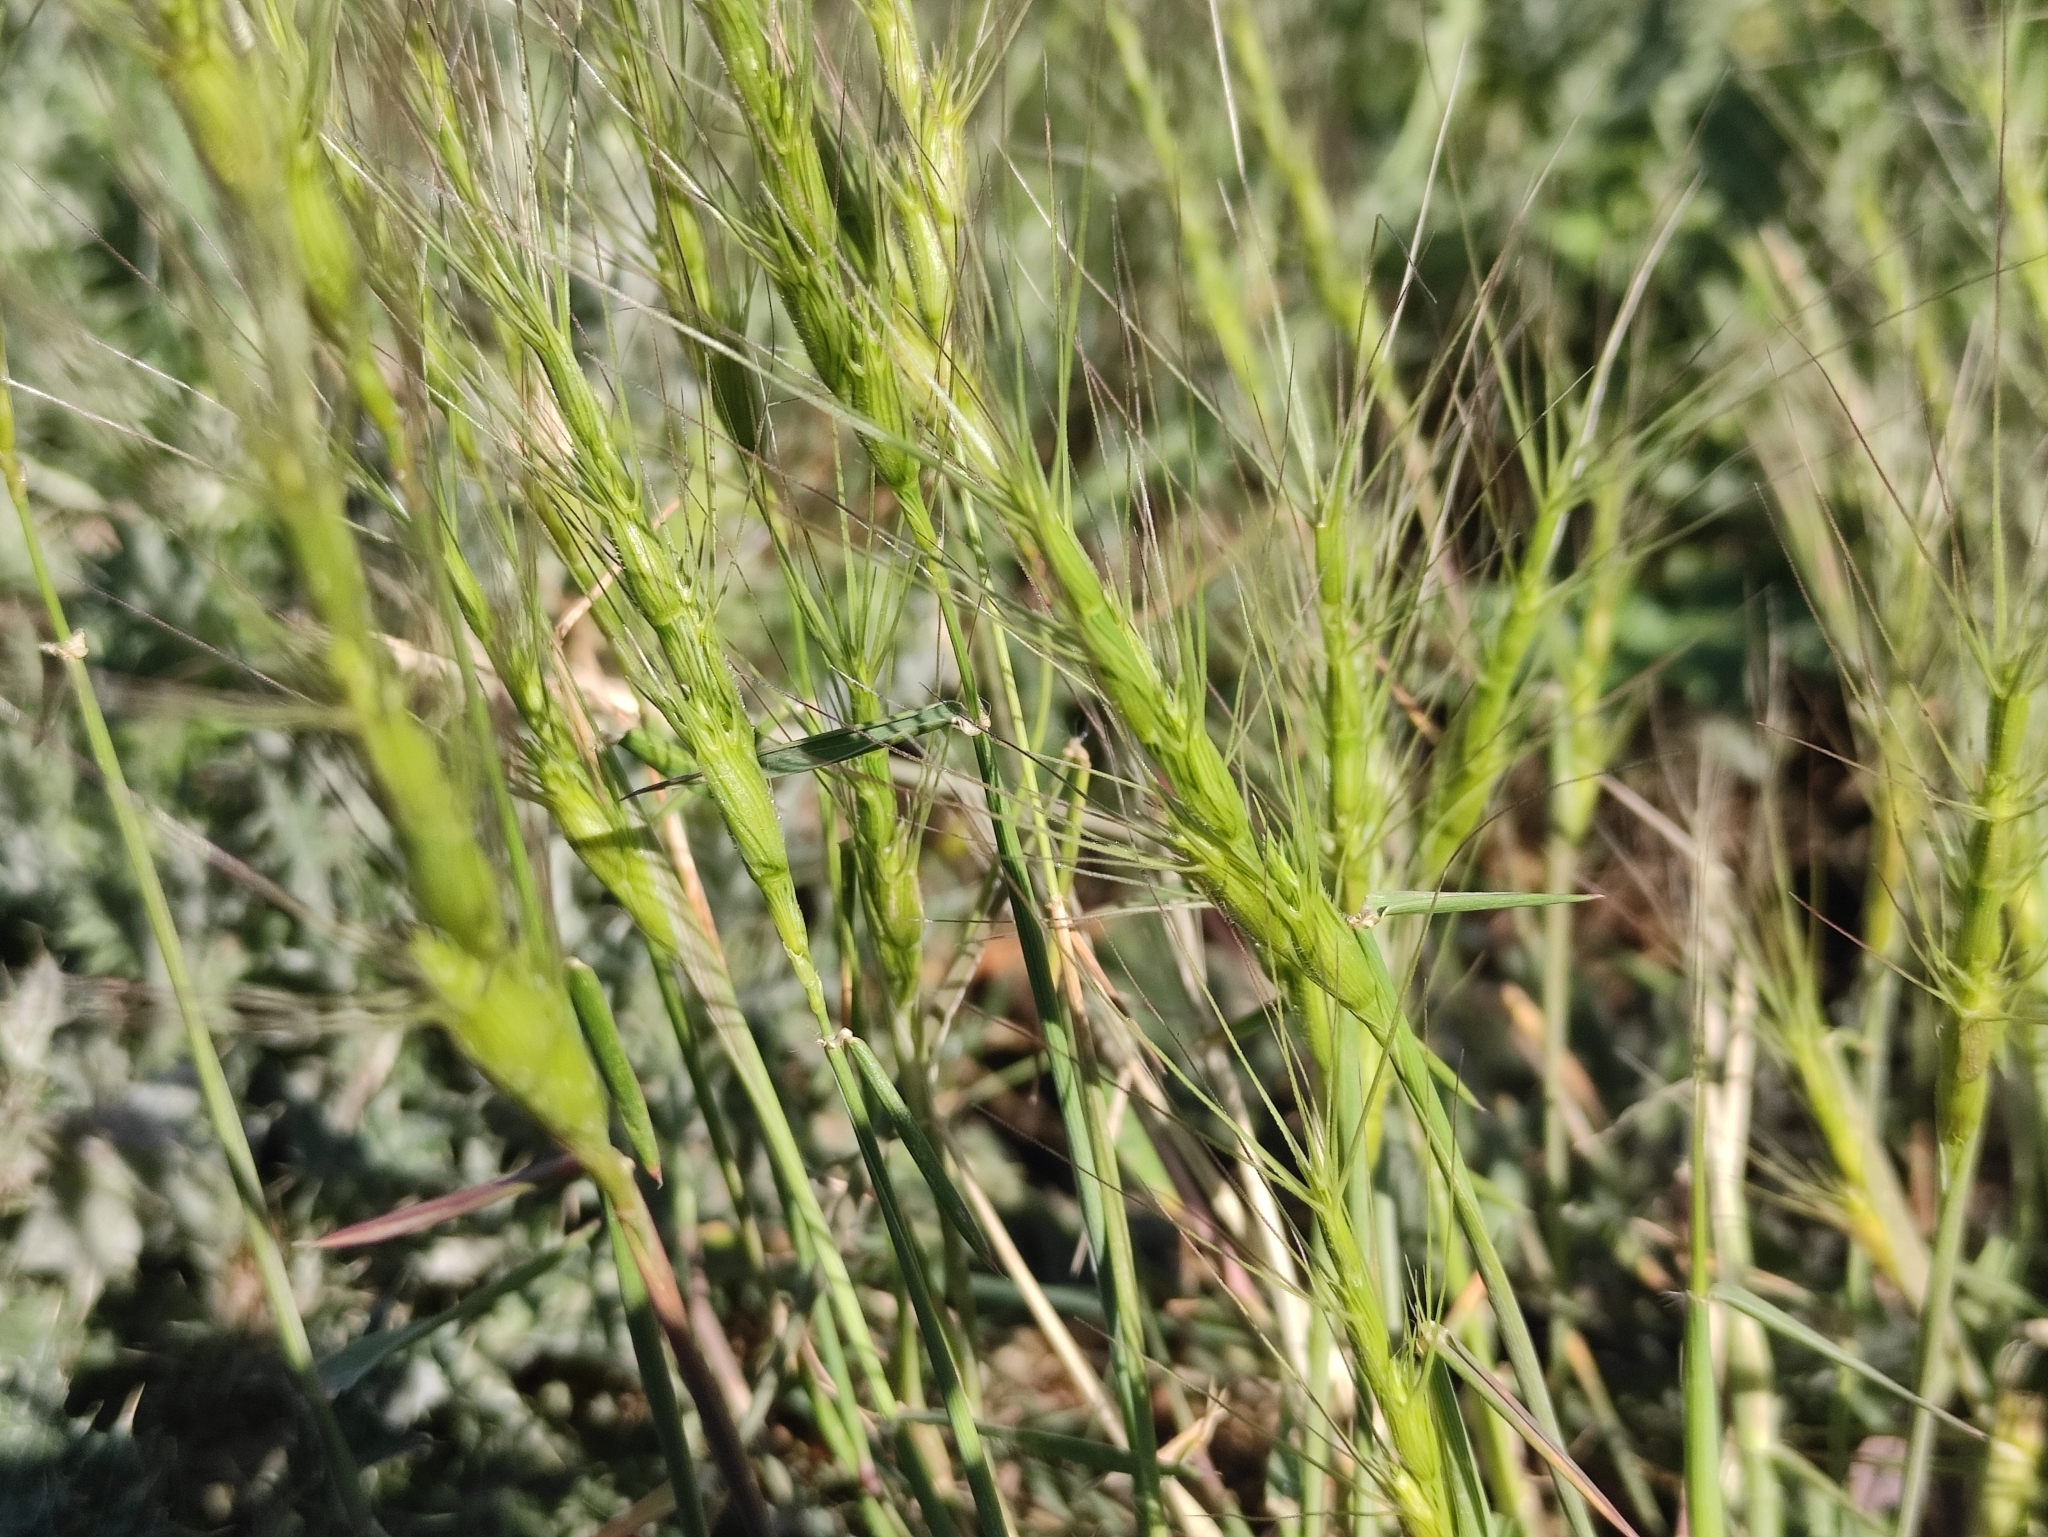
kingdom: Plantae
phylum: Tracheophyta
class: Liliopsida
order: Poales
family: Poaceae
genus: Aegilops
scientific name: Aegilops triuncialis
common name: Barb goat grass
